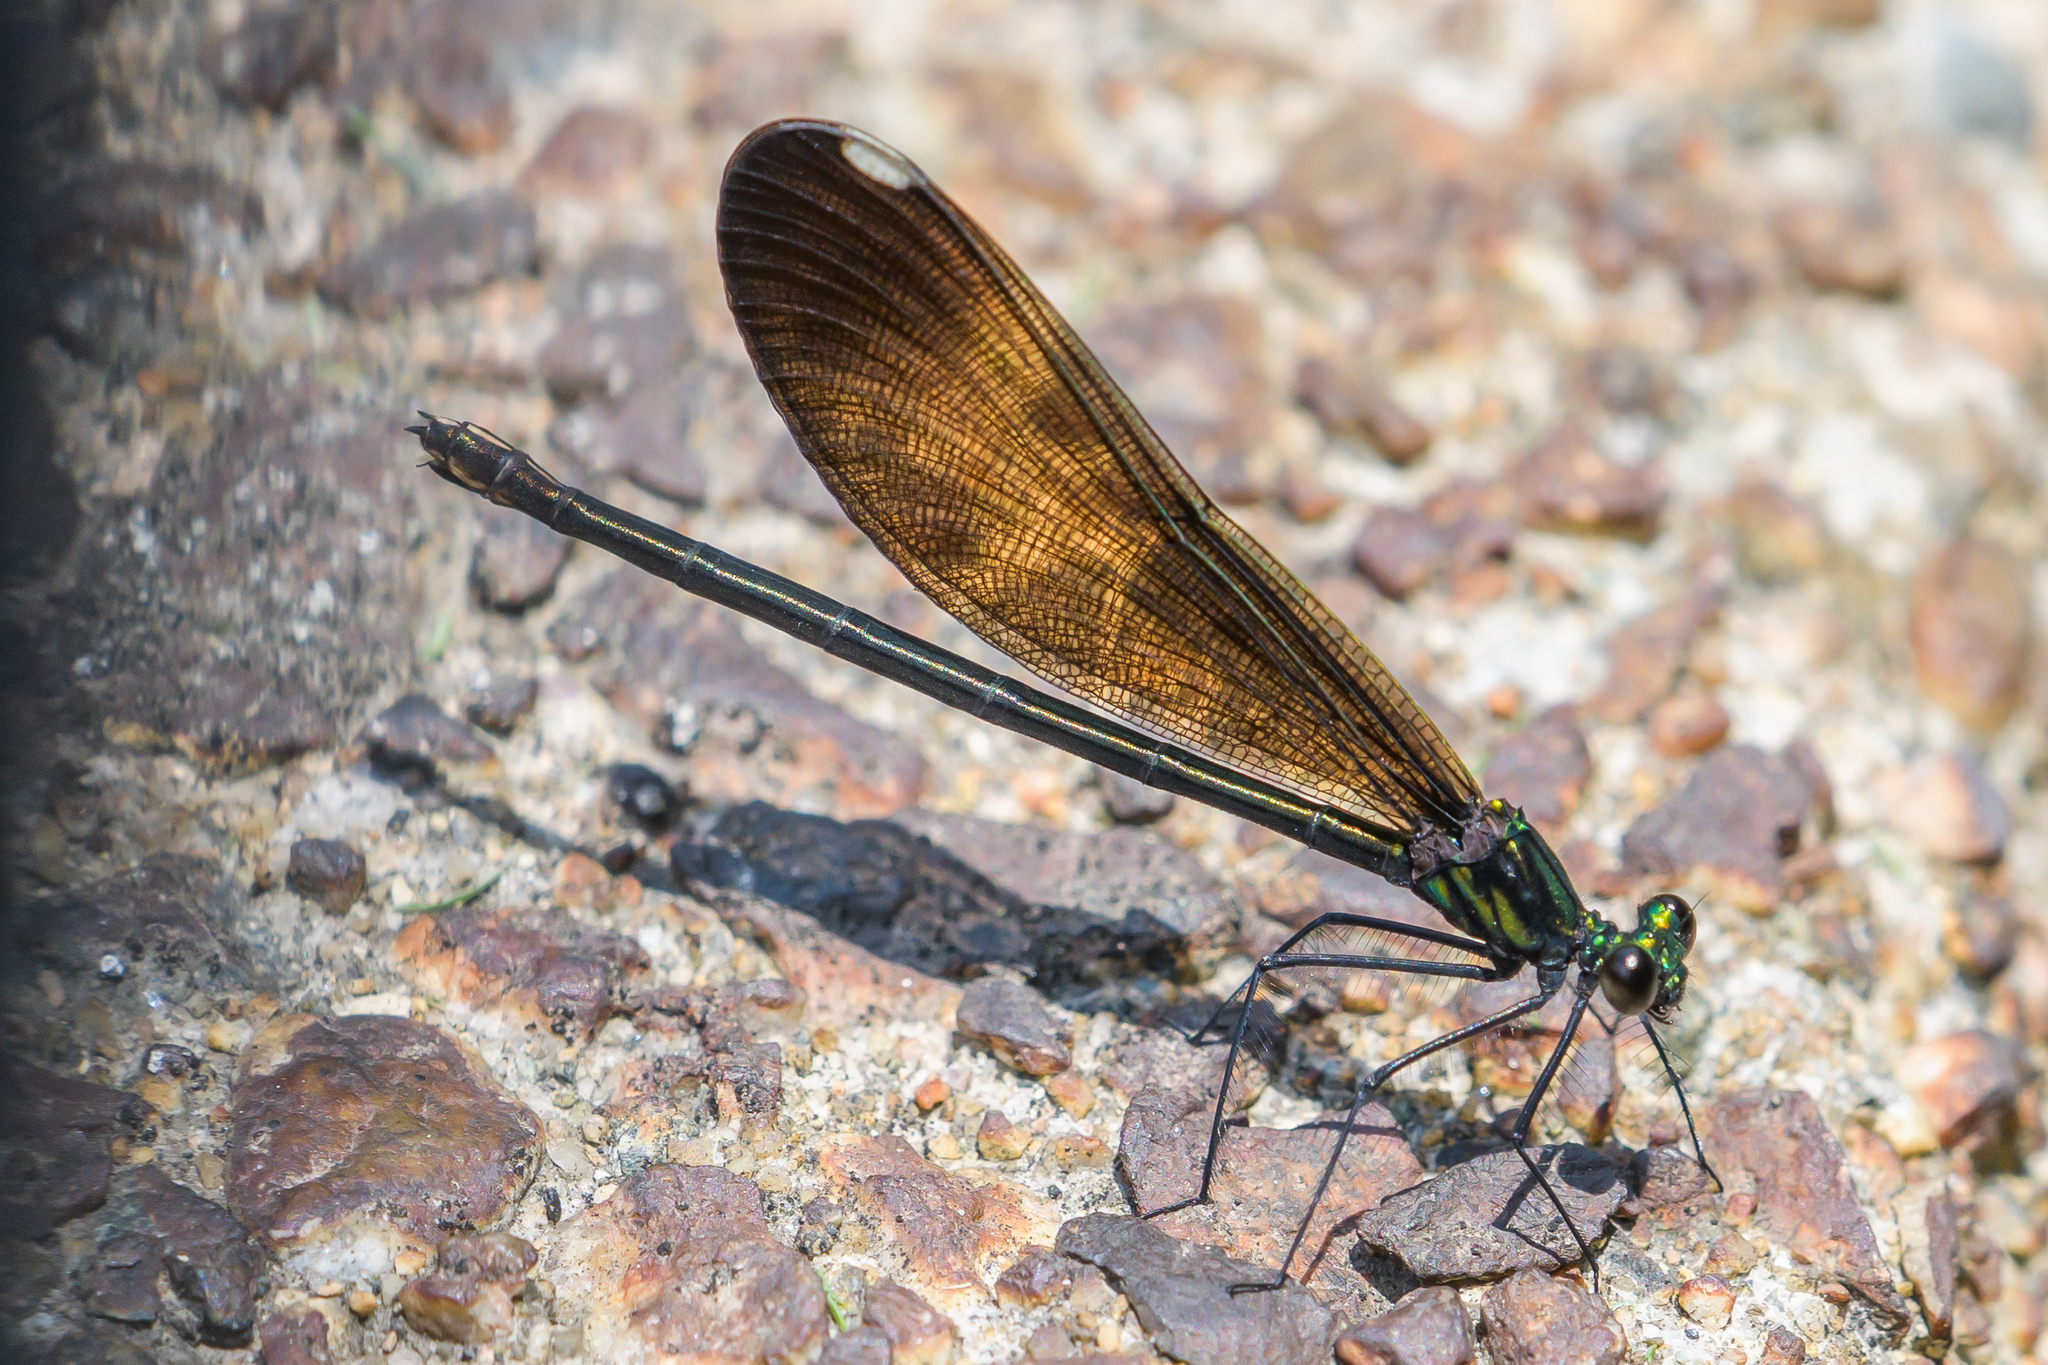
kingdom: Animalia
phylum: Arthropoda
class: Insecta
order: Odonata
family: Calopterygidae
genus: Calopteryx
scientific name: Calopteryx maculata
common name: Ebony jewelwing
